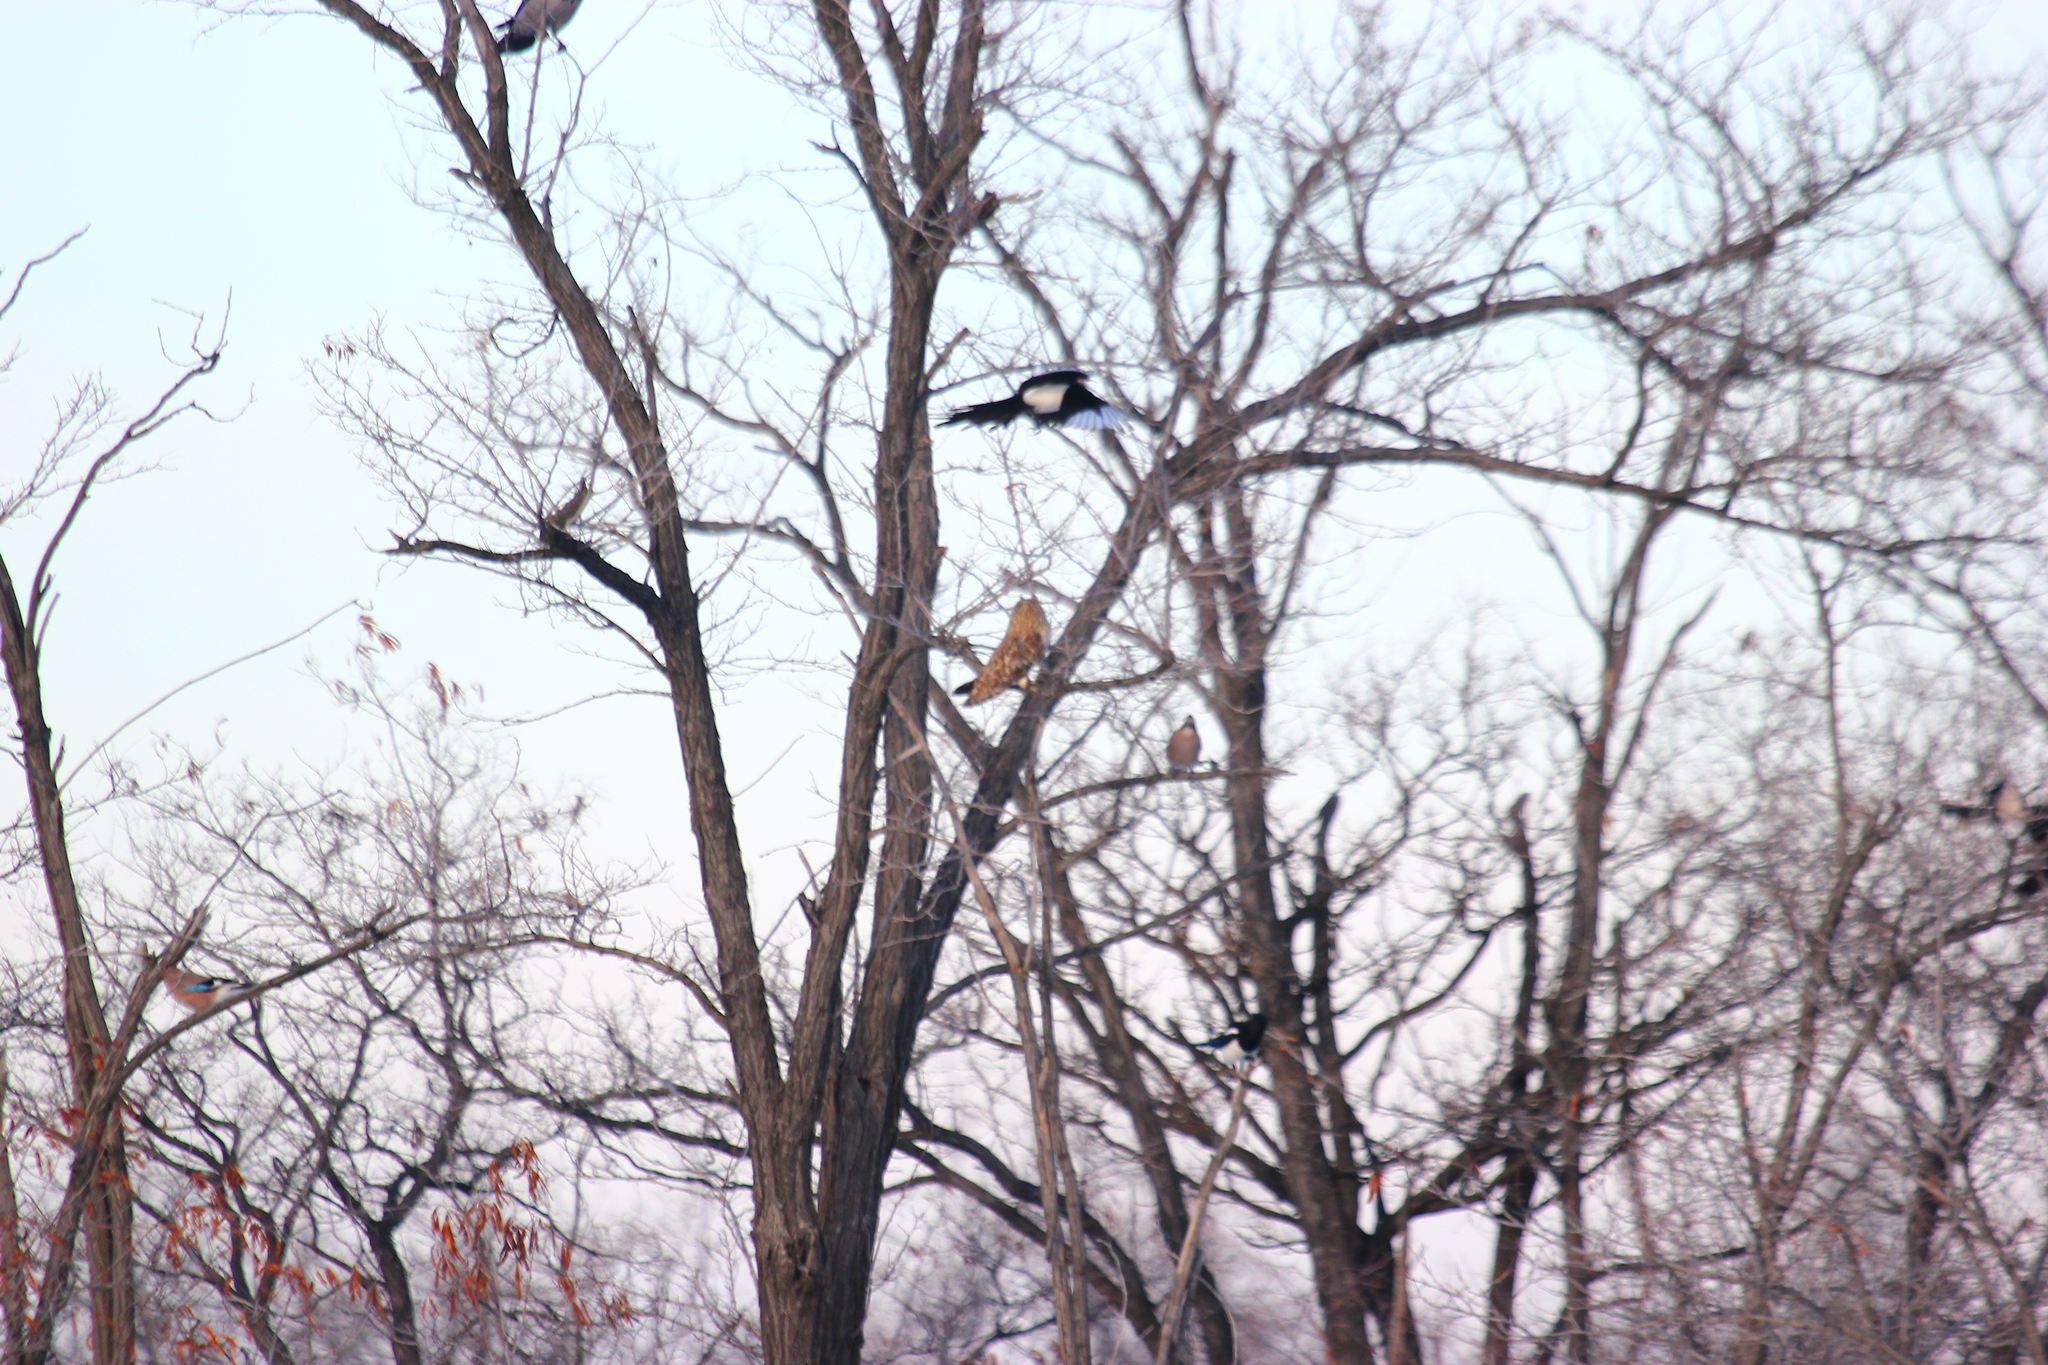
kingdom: Animalia
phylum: Chordata
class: Aves
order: Passeriformes
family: Corvidae
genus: Garrulus
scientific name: Garrulus glandarius
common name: Eurasian jay
